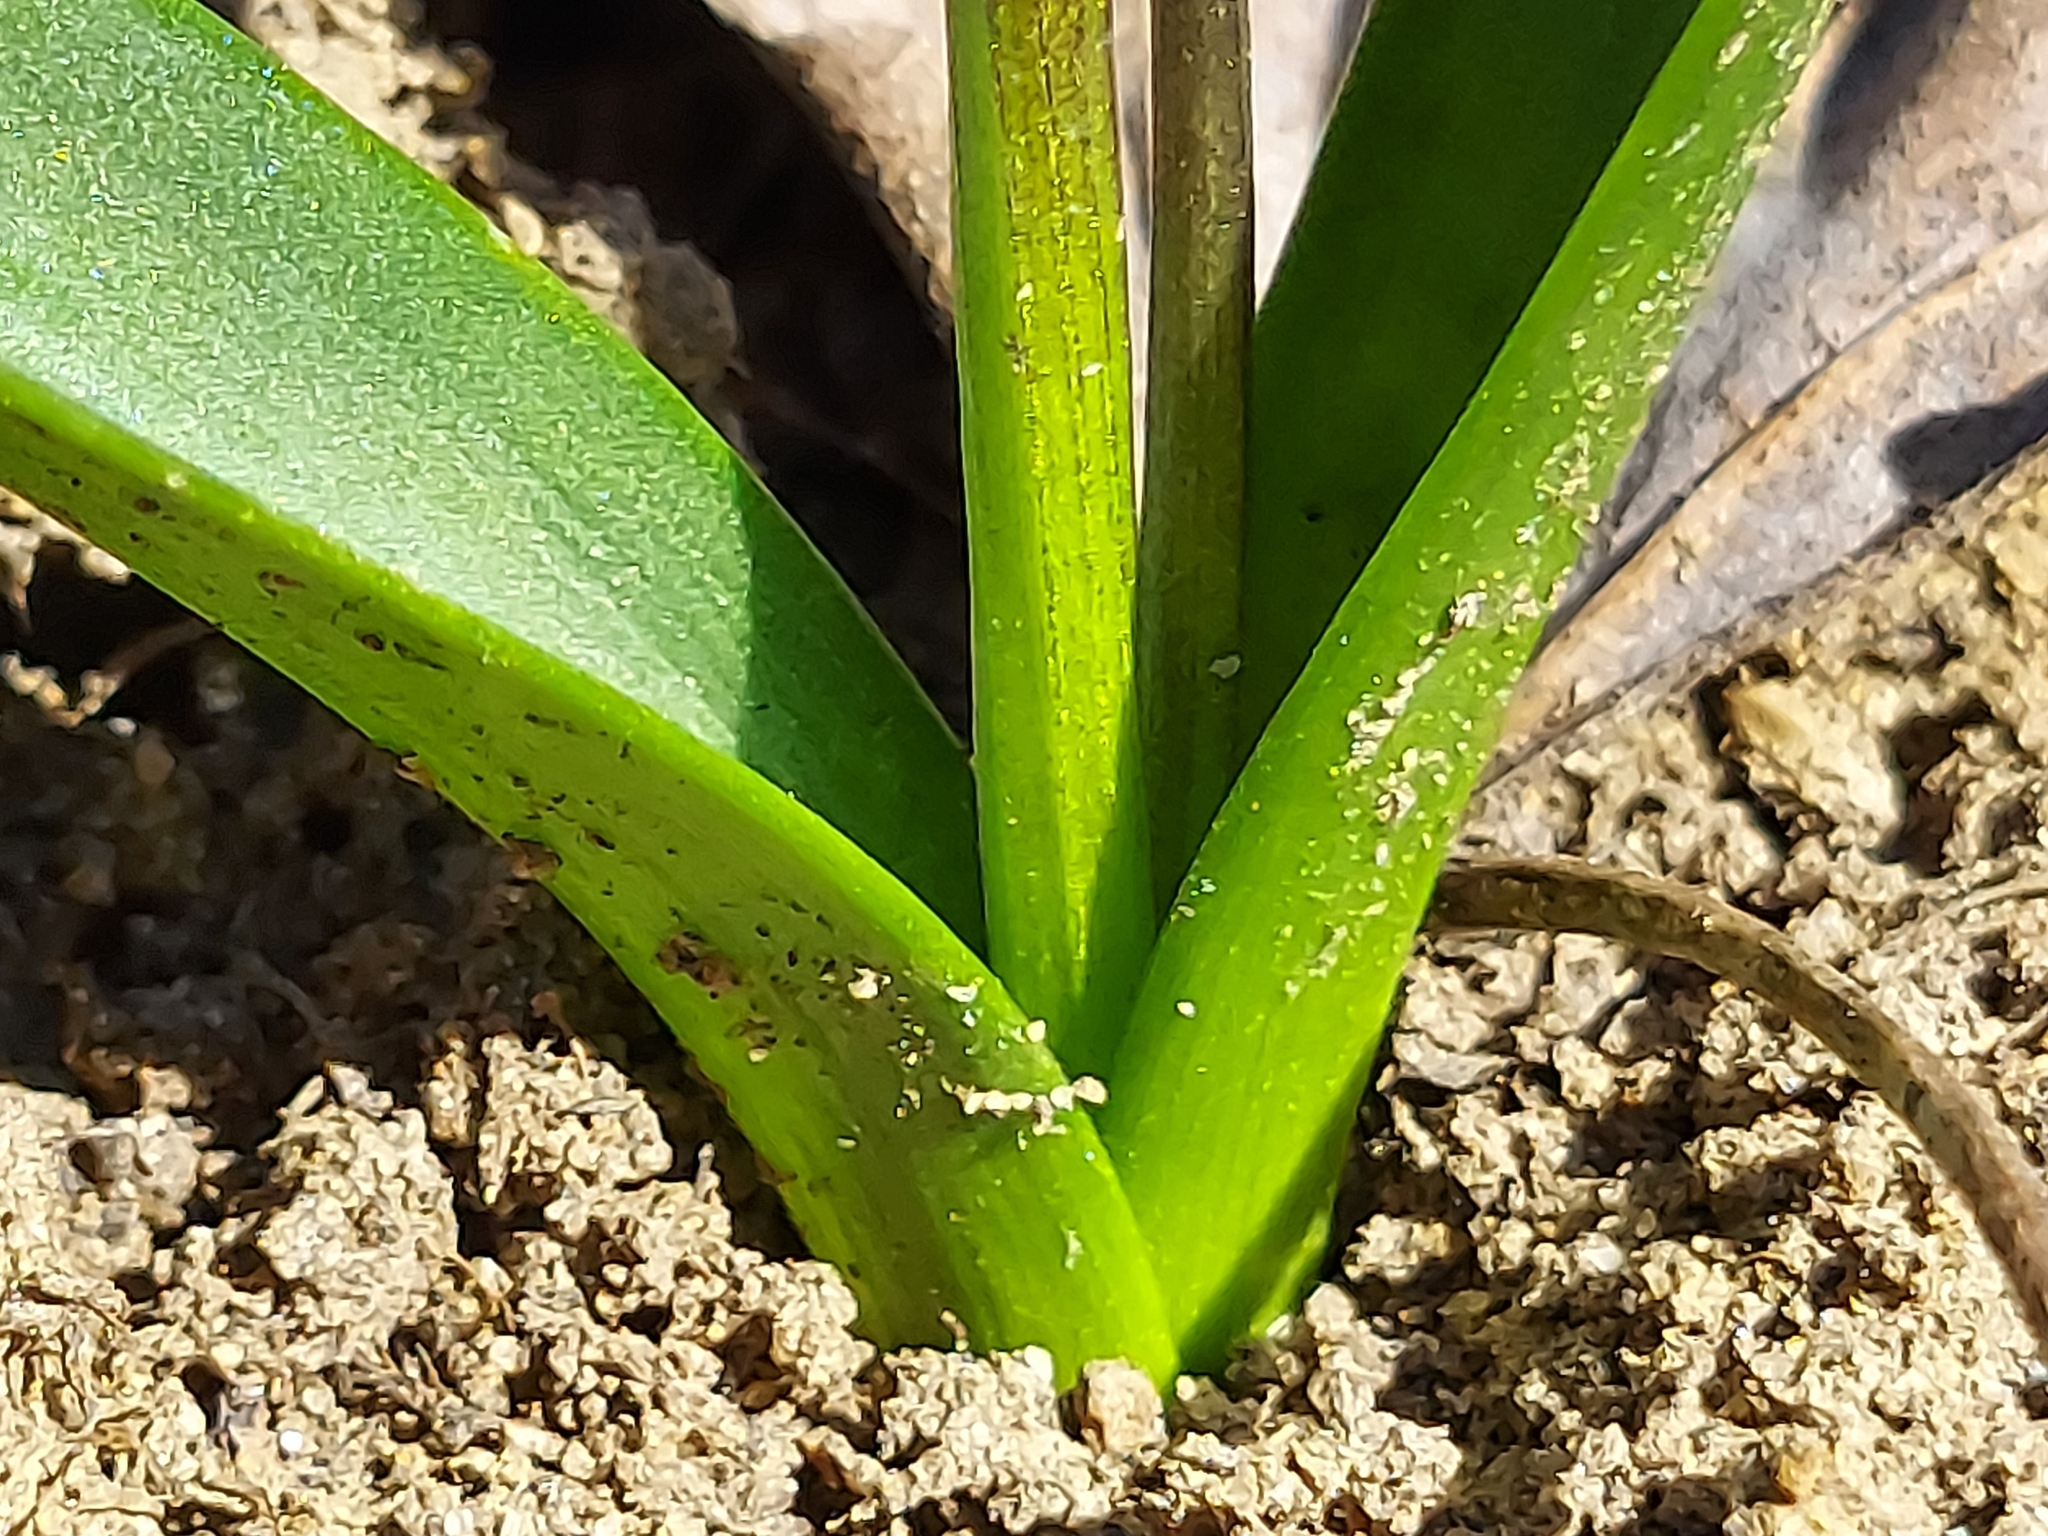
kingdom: Plantae
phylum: Tracheophyta
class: Liliopsida
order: Asparagales
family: Asparagaceae
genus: Scilla
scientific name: Scilla siberica
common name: Siberian squill
